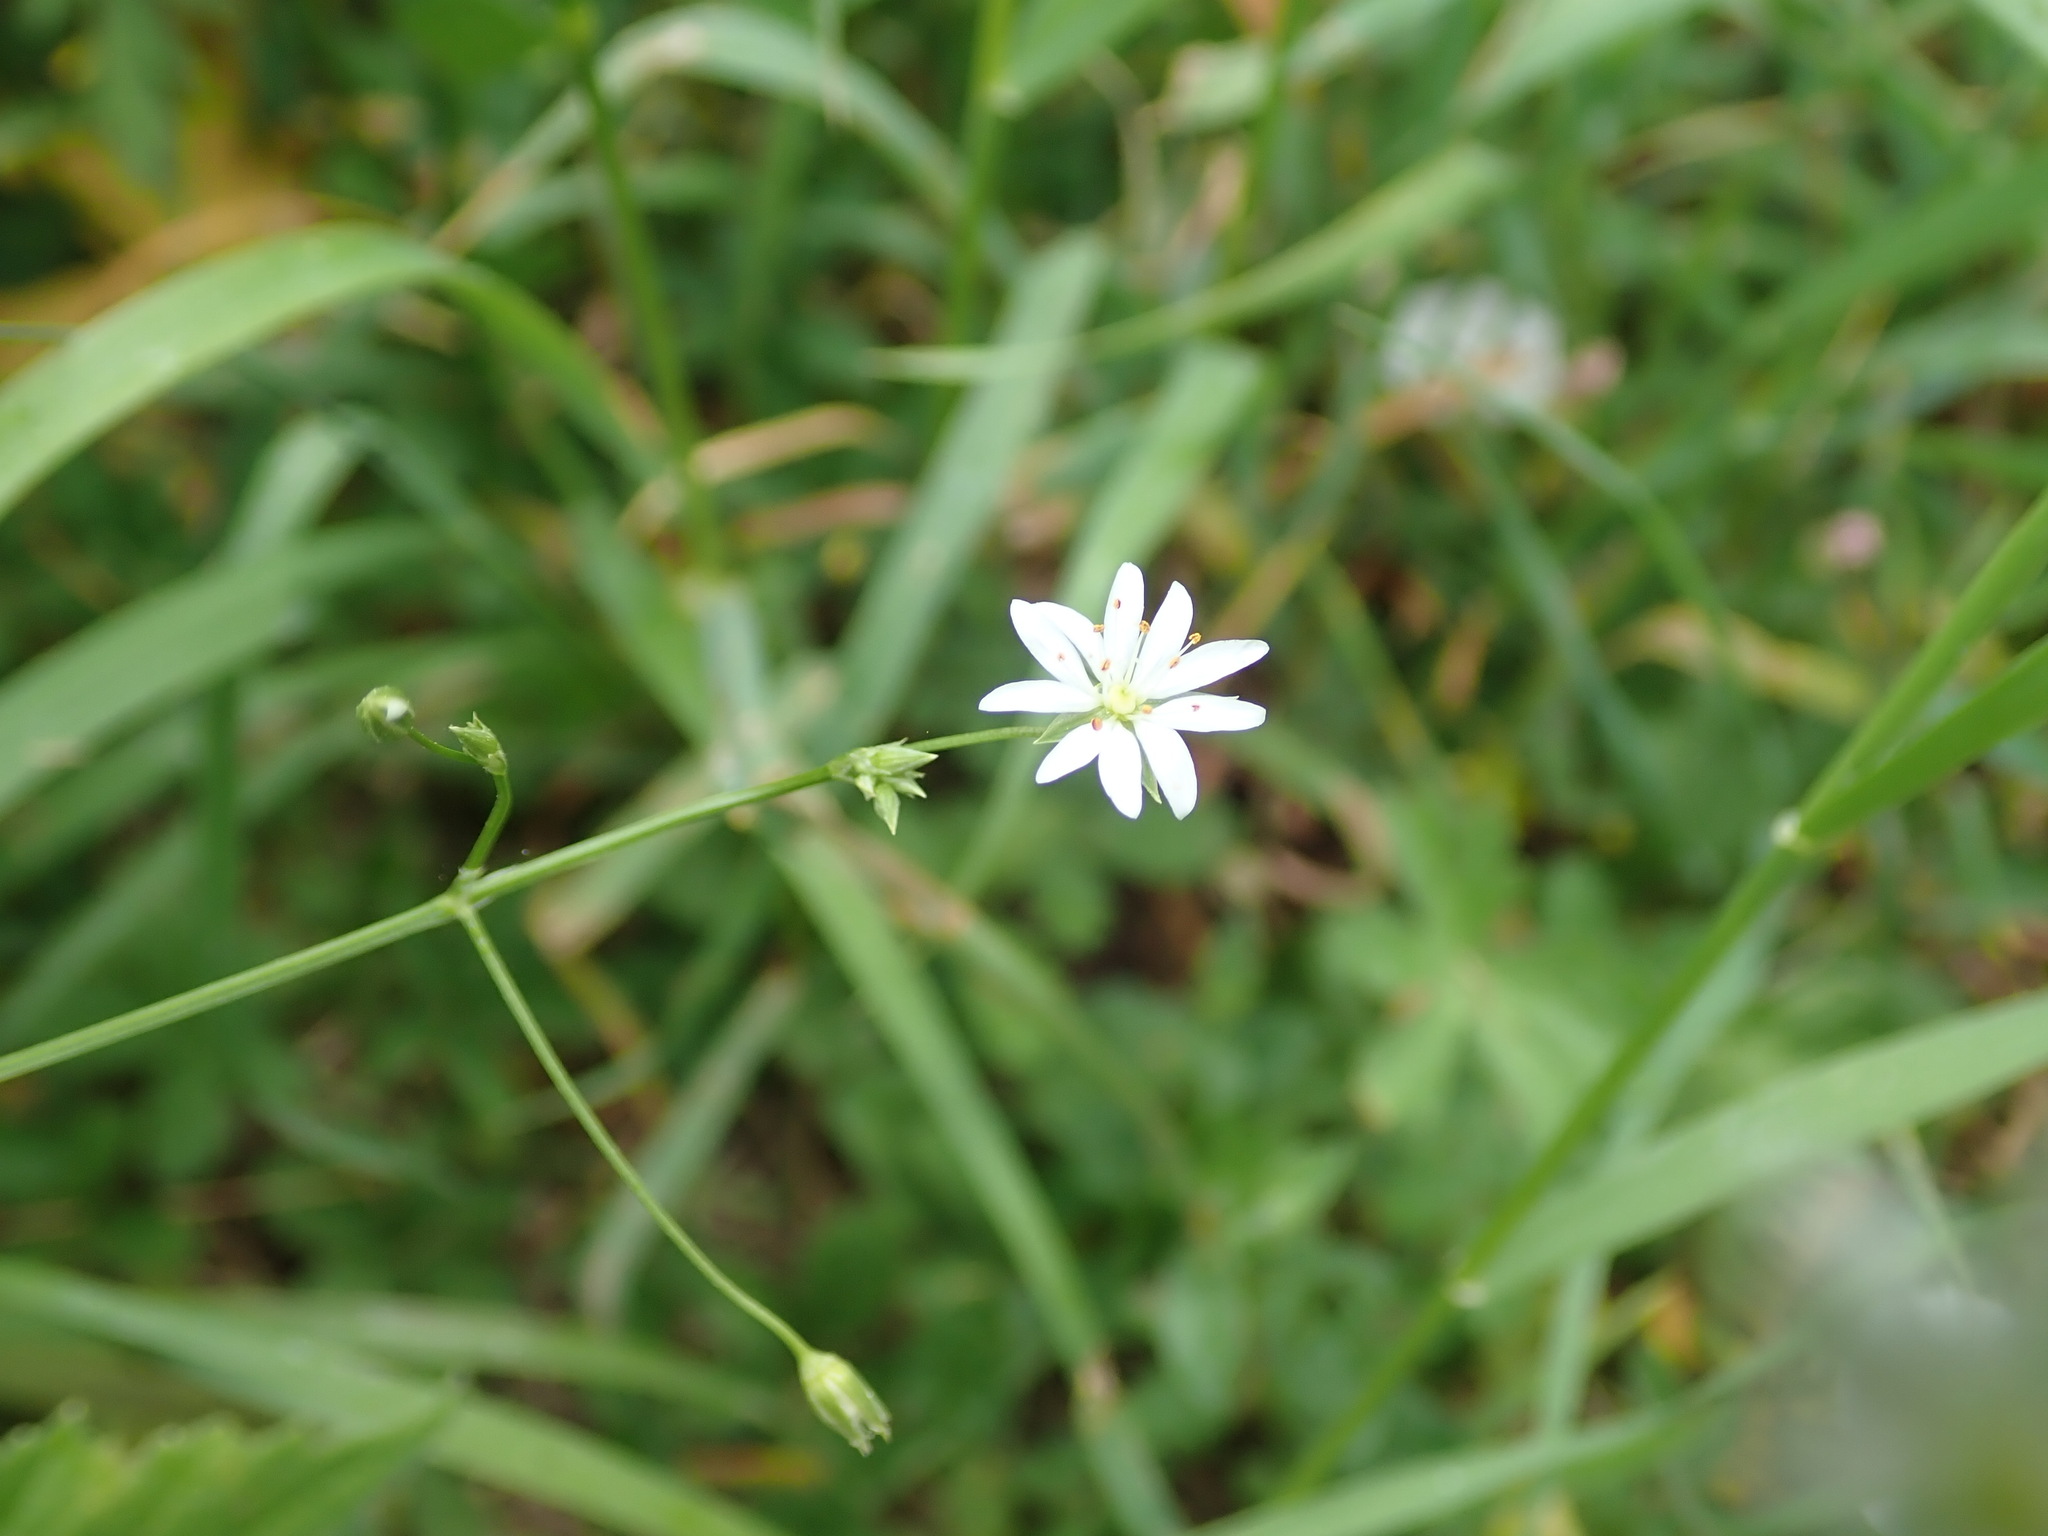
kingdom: Plantae
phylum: Tracheophyta
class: Magnoliopsida
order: Caryophyllales
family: Caryophyllaceae
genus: Stellaria
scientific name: Stellaria graminea
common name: Grass-like starwort
